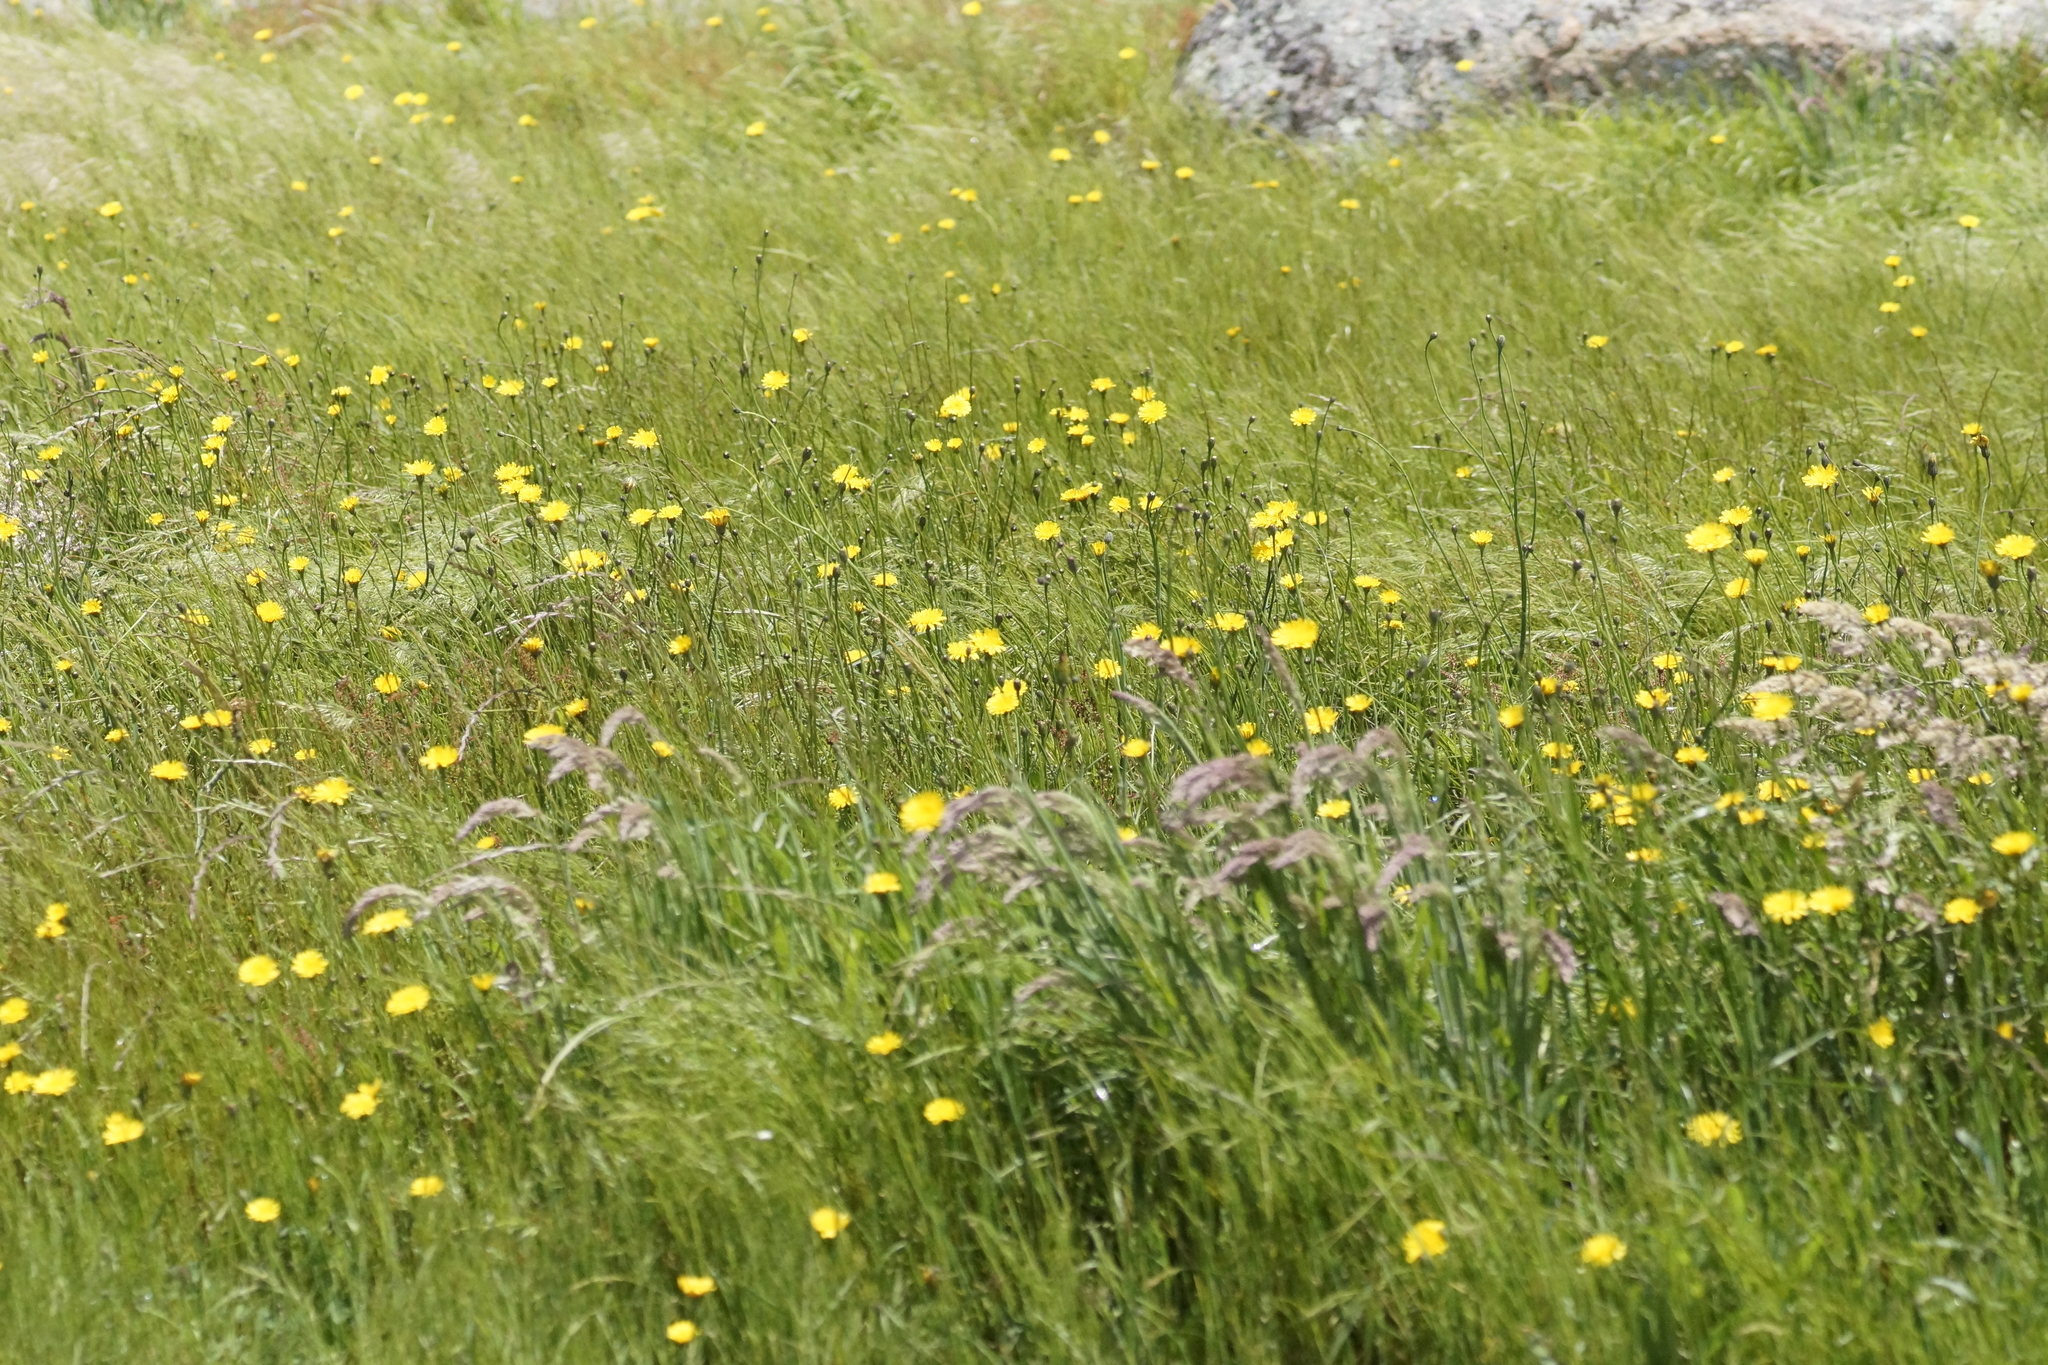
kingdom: Plantae
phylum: Tracheophyta
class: Magnoliopsida
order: Asterales
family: Asteraceae
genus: Hypochaeris
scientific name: Hypochaeris radicata
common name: Flatweed
